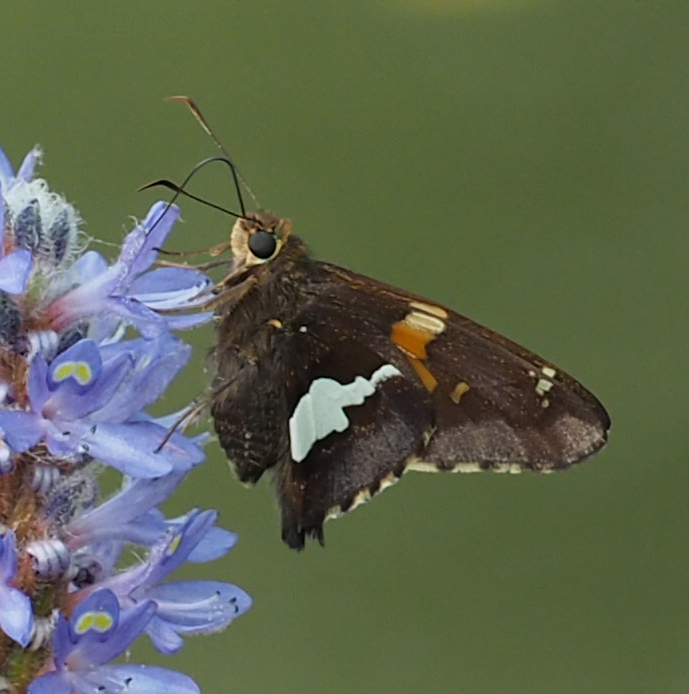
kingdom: Animalia
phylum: Arthropoda
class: Insecta
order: Lepidoptera
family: Hesperiidae
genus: Epargyreus
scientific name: Epargyreus clarus
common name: Silver-spotted skipper
